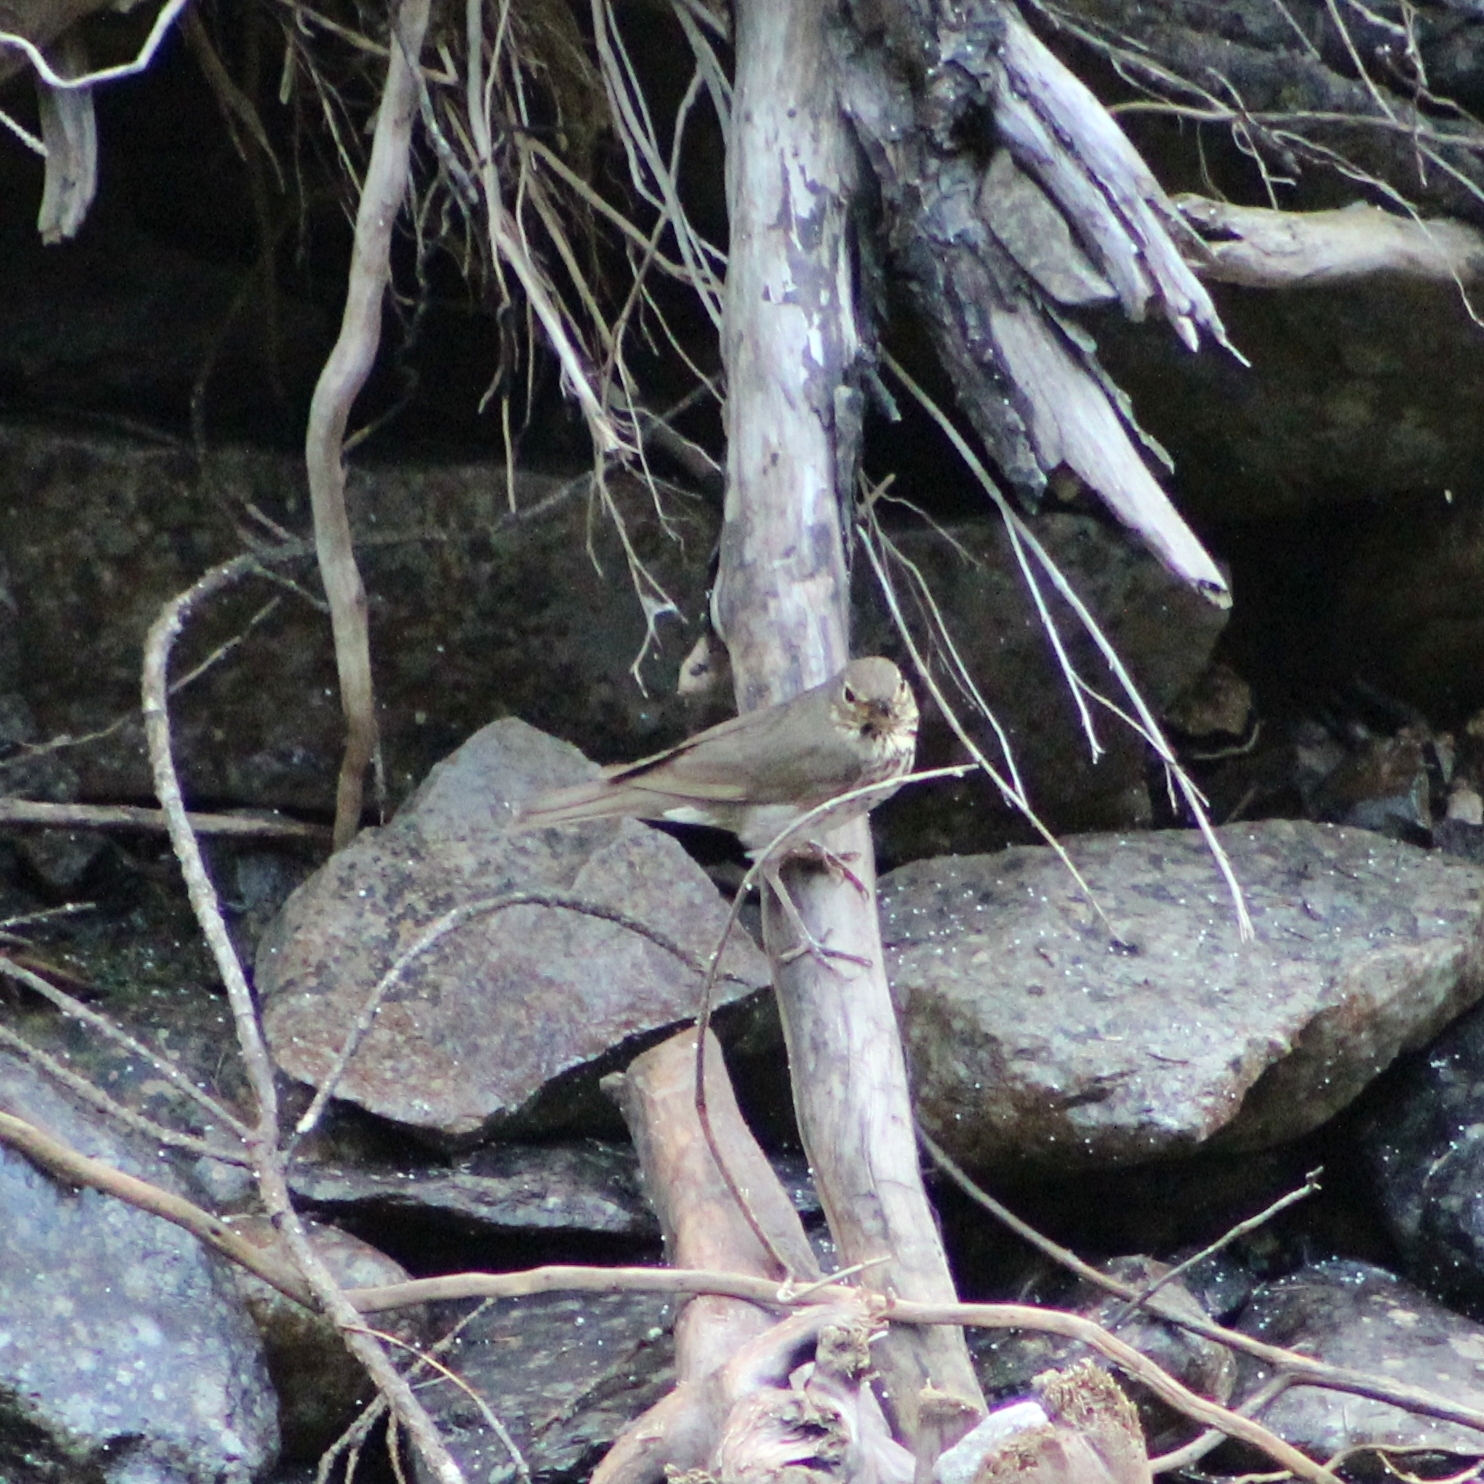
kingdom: Animalia
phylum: Chordata
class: Aves
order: Passeriformes
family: Turdidae
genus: Catharus
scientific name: Catharus ustulatus
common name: Swainson's thrush
